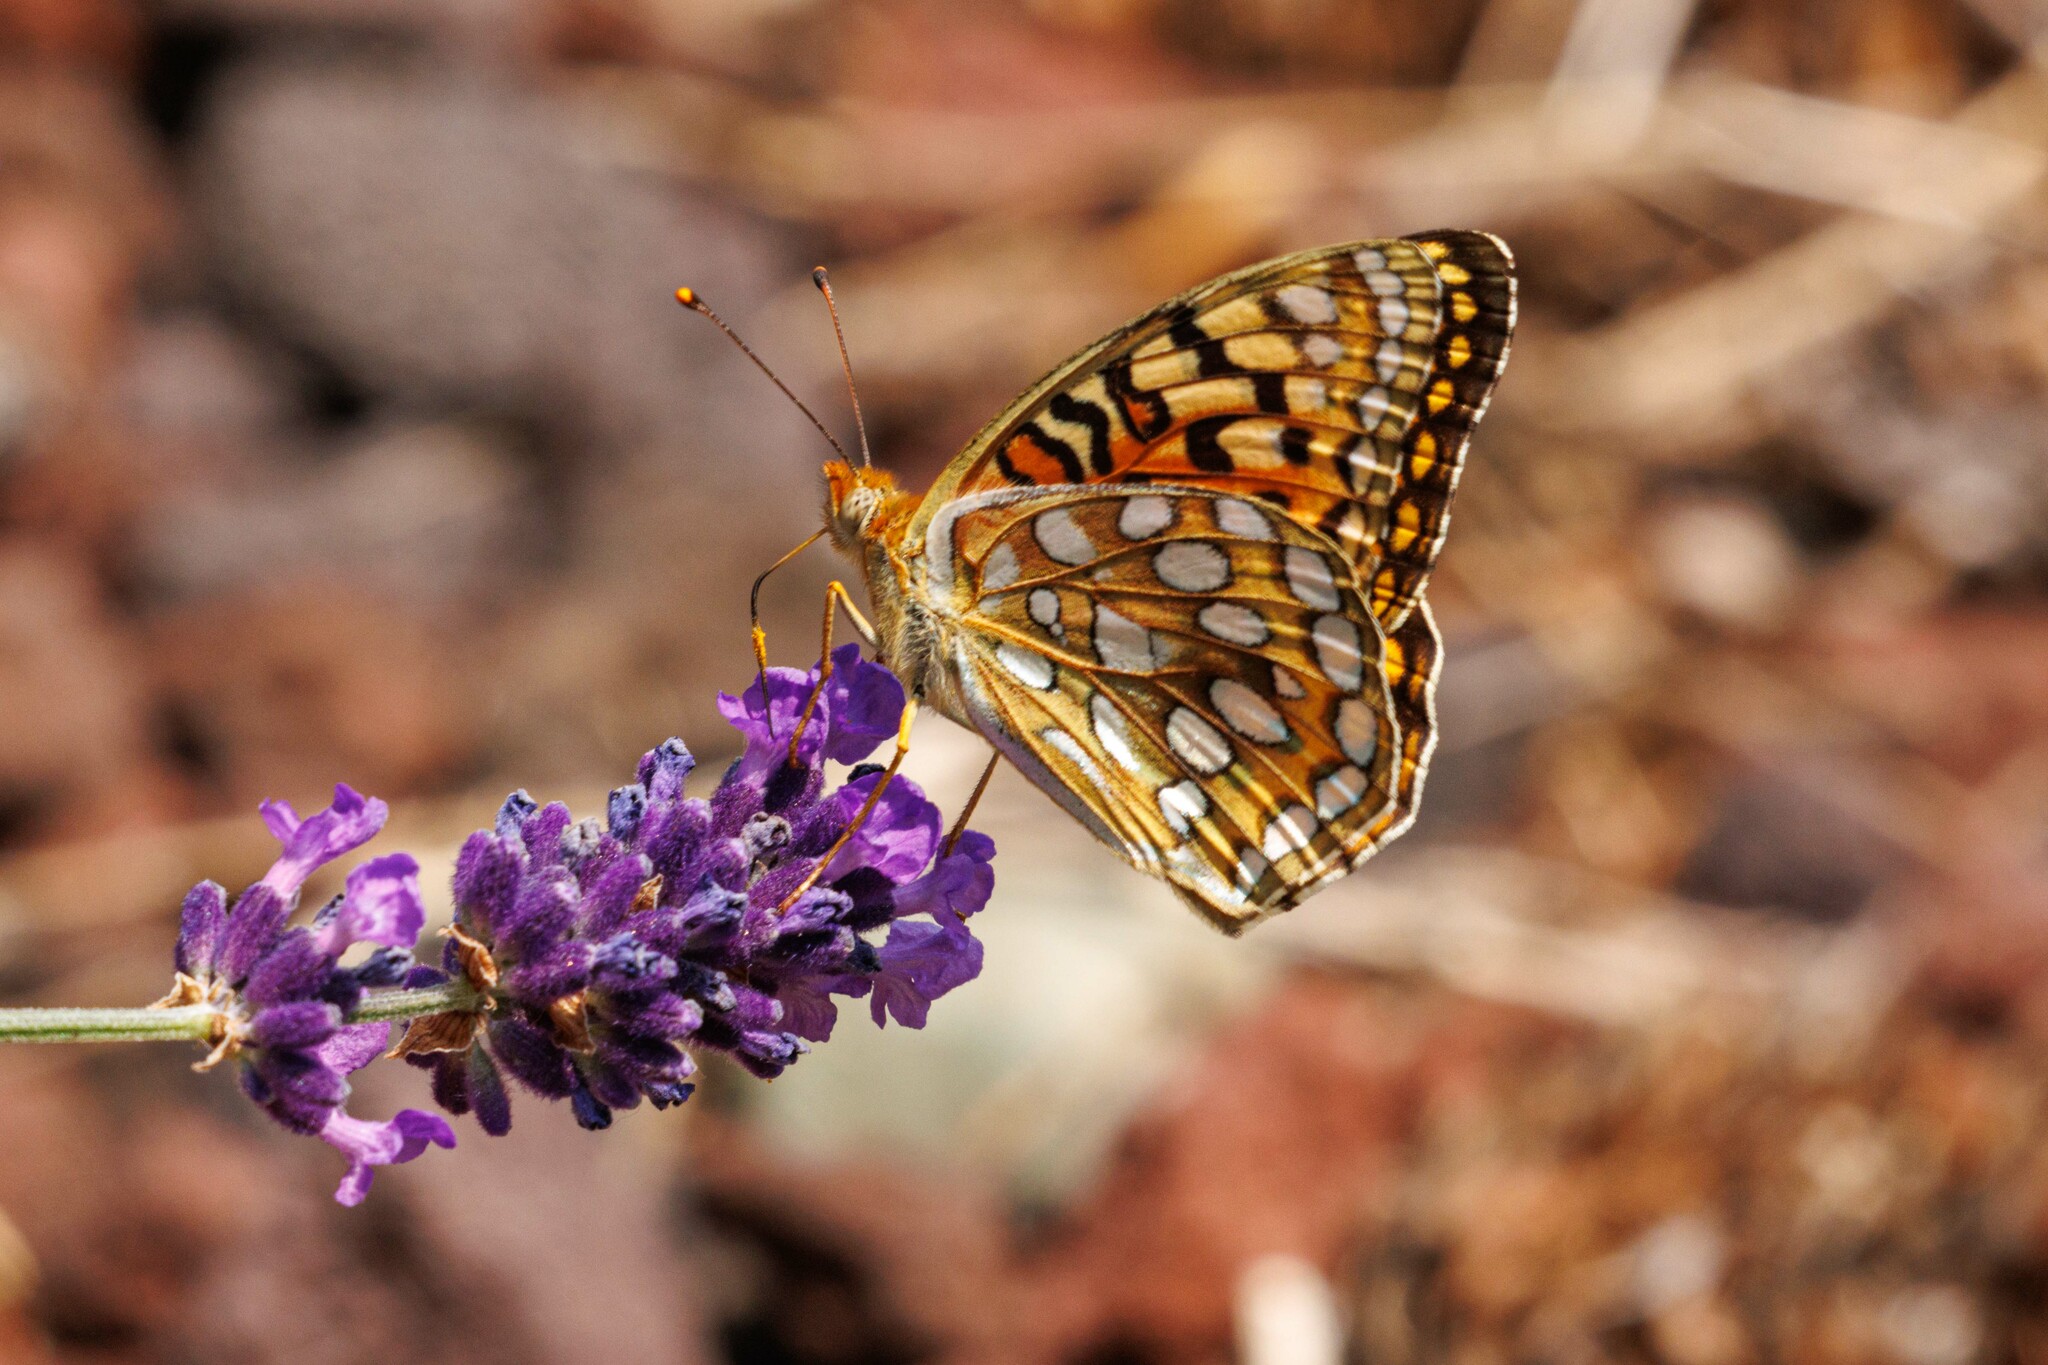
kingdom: Animalia
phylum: Arthropoda
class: Insecta
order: Lepidoptera
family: Nymphalidae
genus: Argynnis
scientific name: Argynnis coronis
